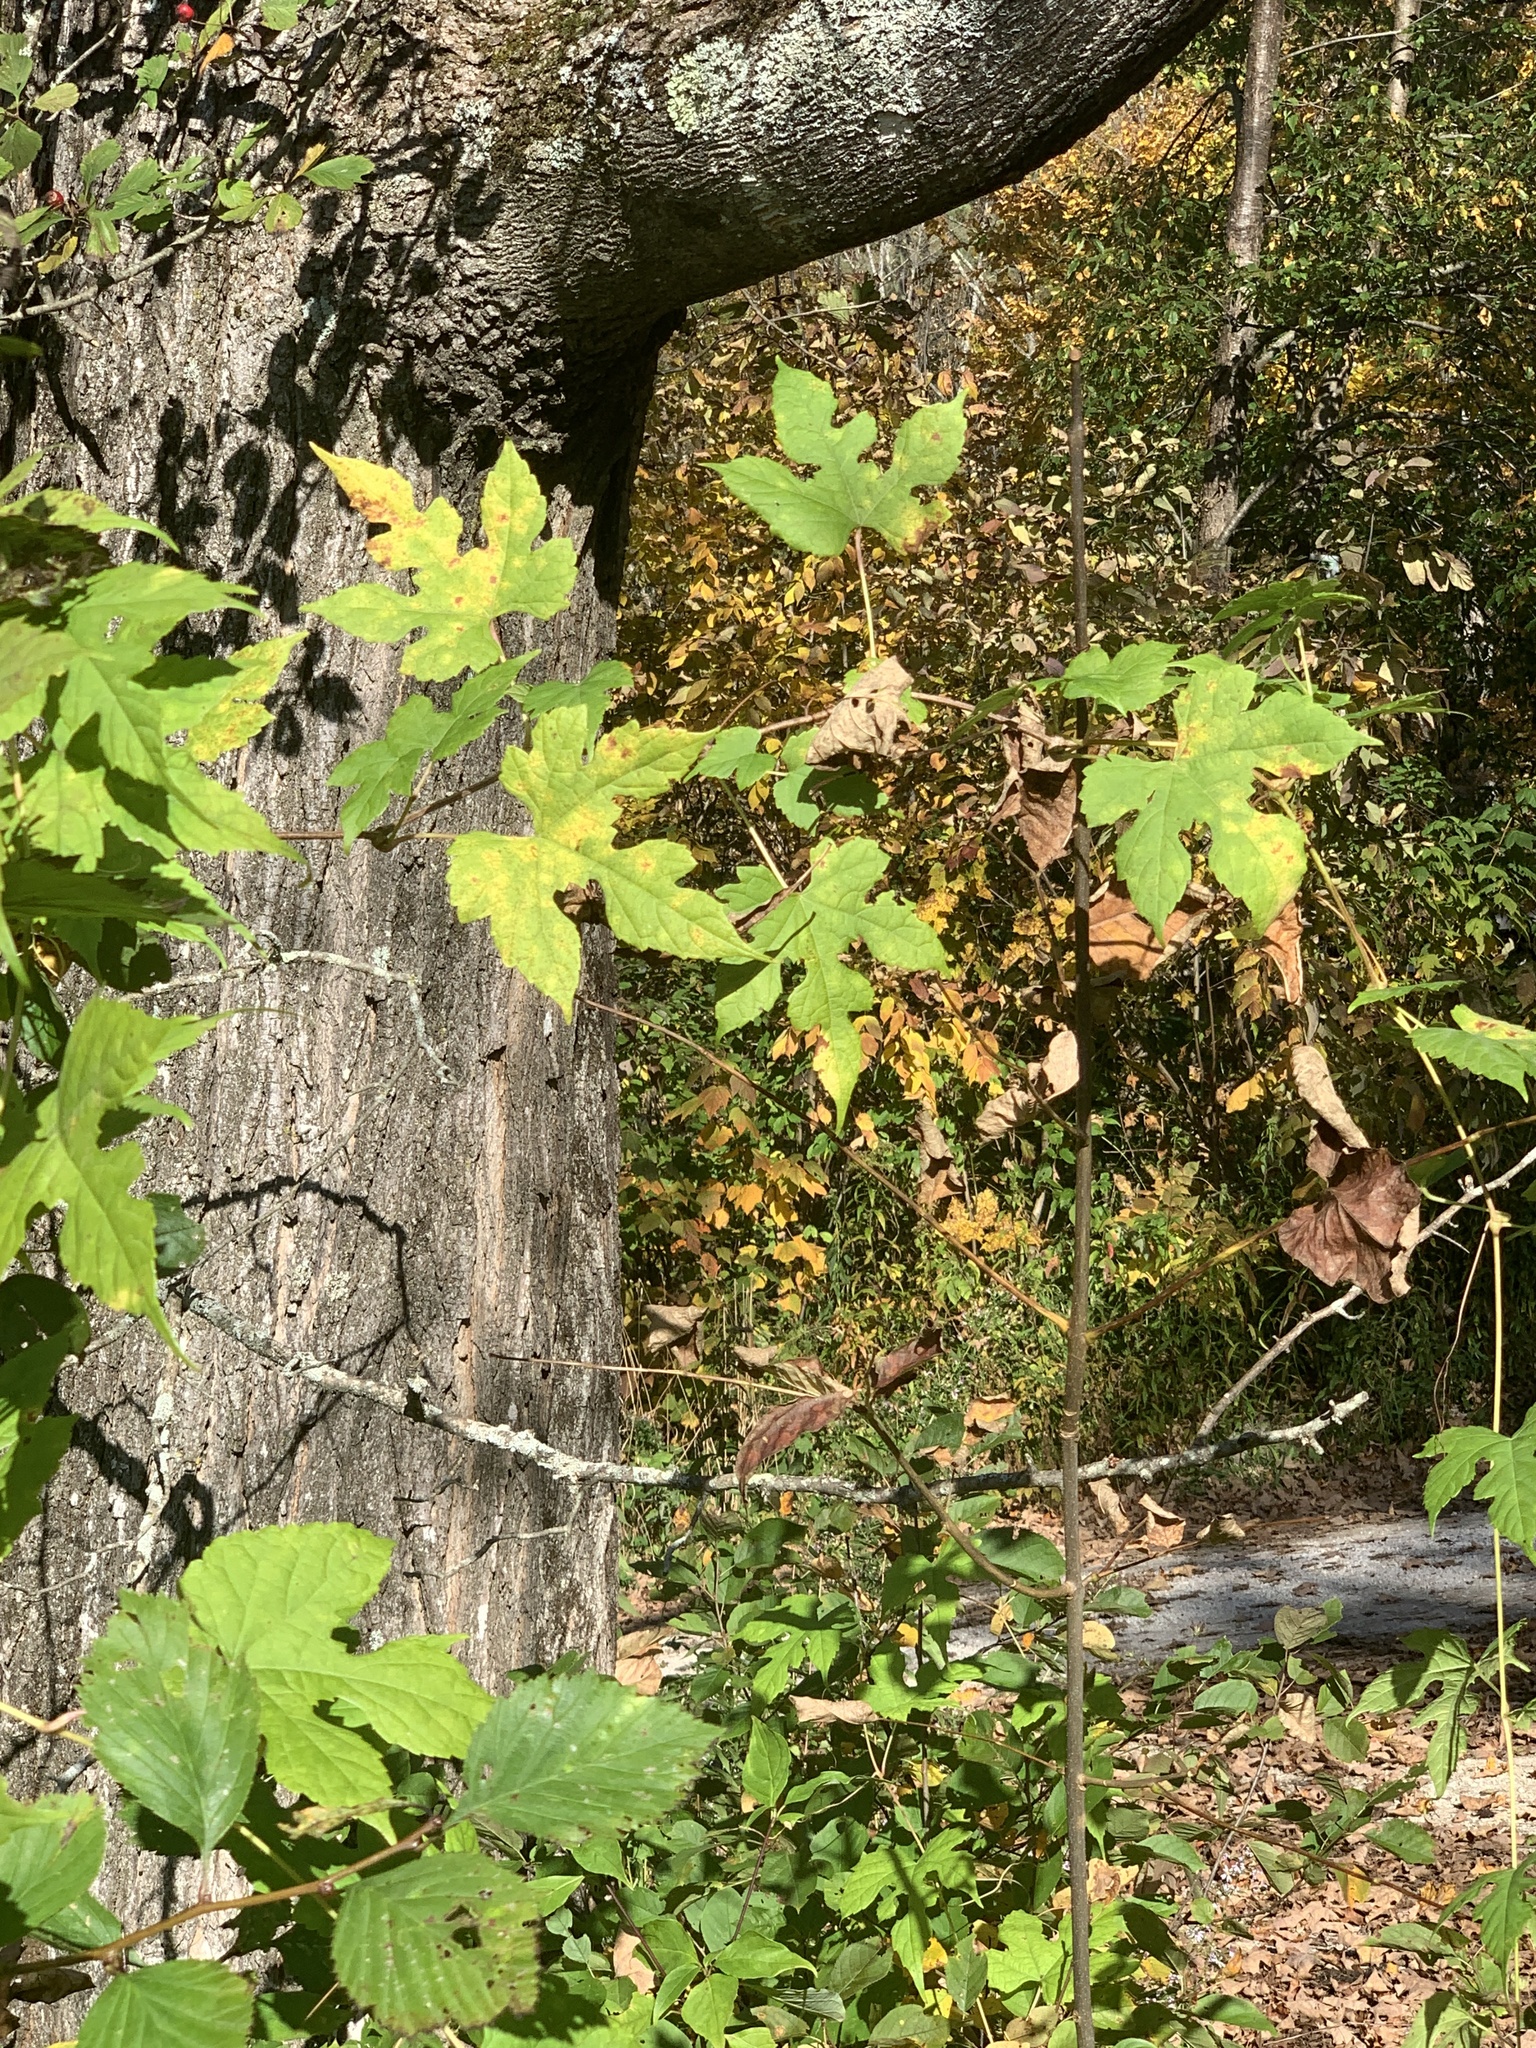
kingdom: Plantae
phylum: Tracheophyta
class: Magnoliopsida
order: Vitales
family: Vitaceae
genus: Ampelopsis
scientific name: Ampelopsis glandulosa
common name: Amur peppervine
